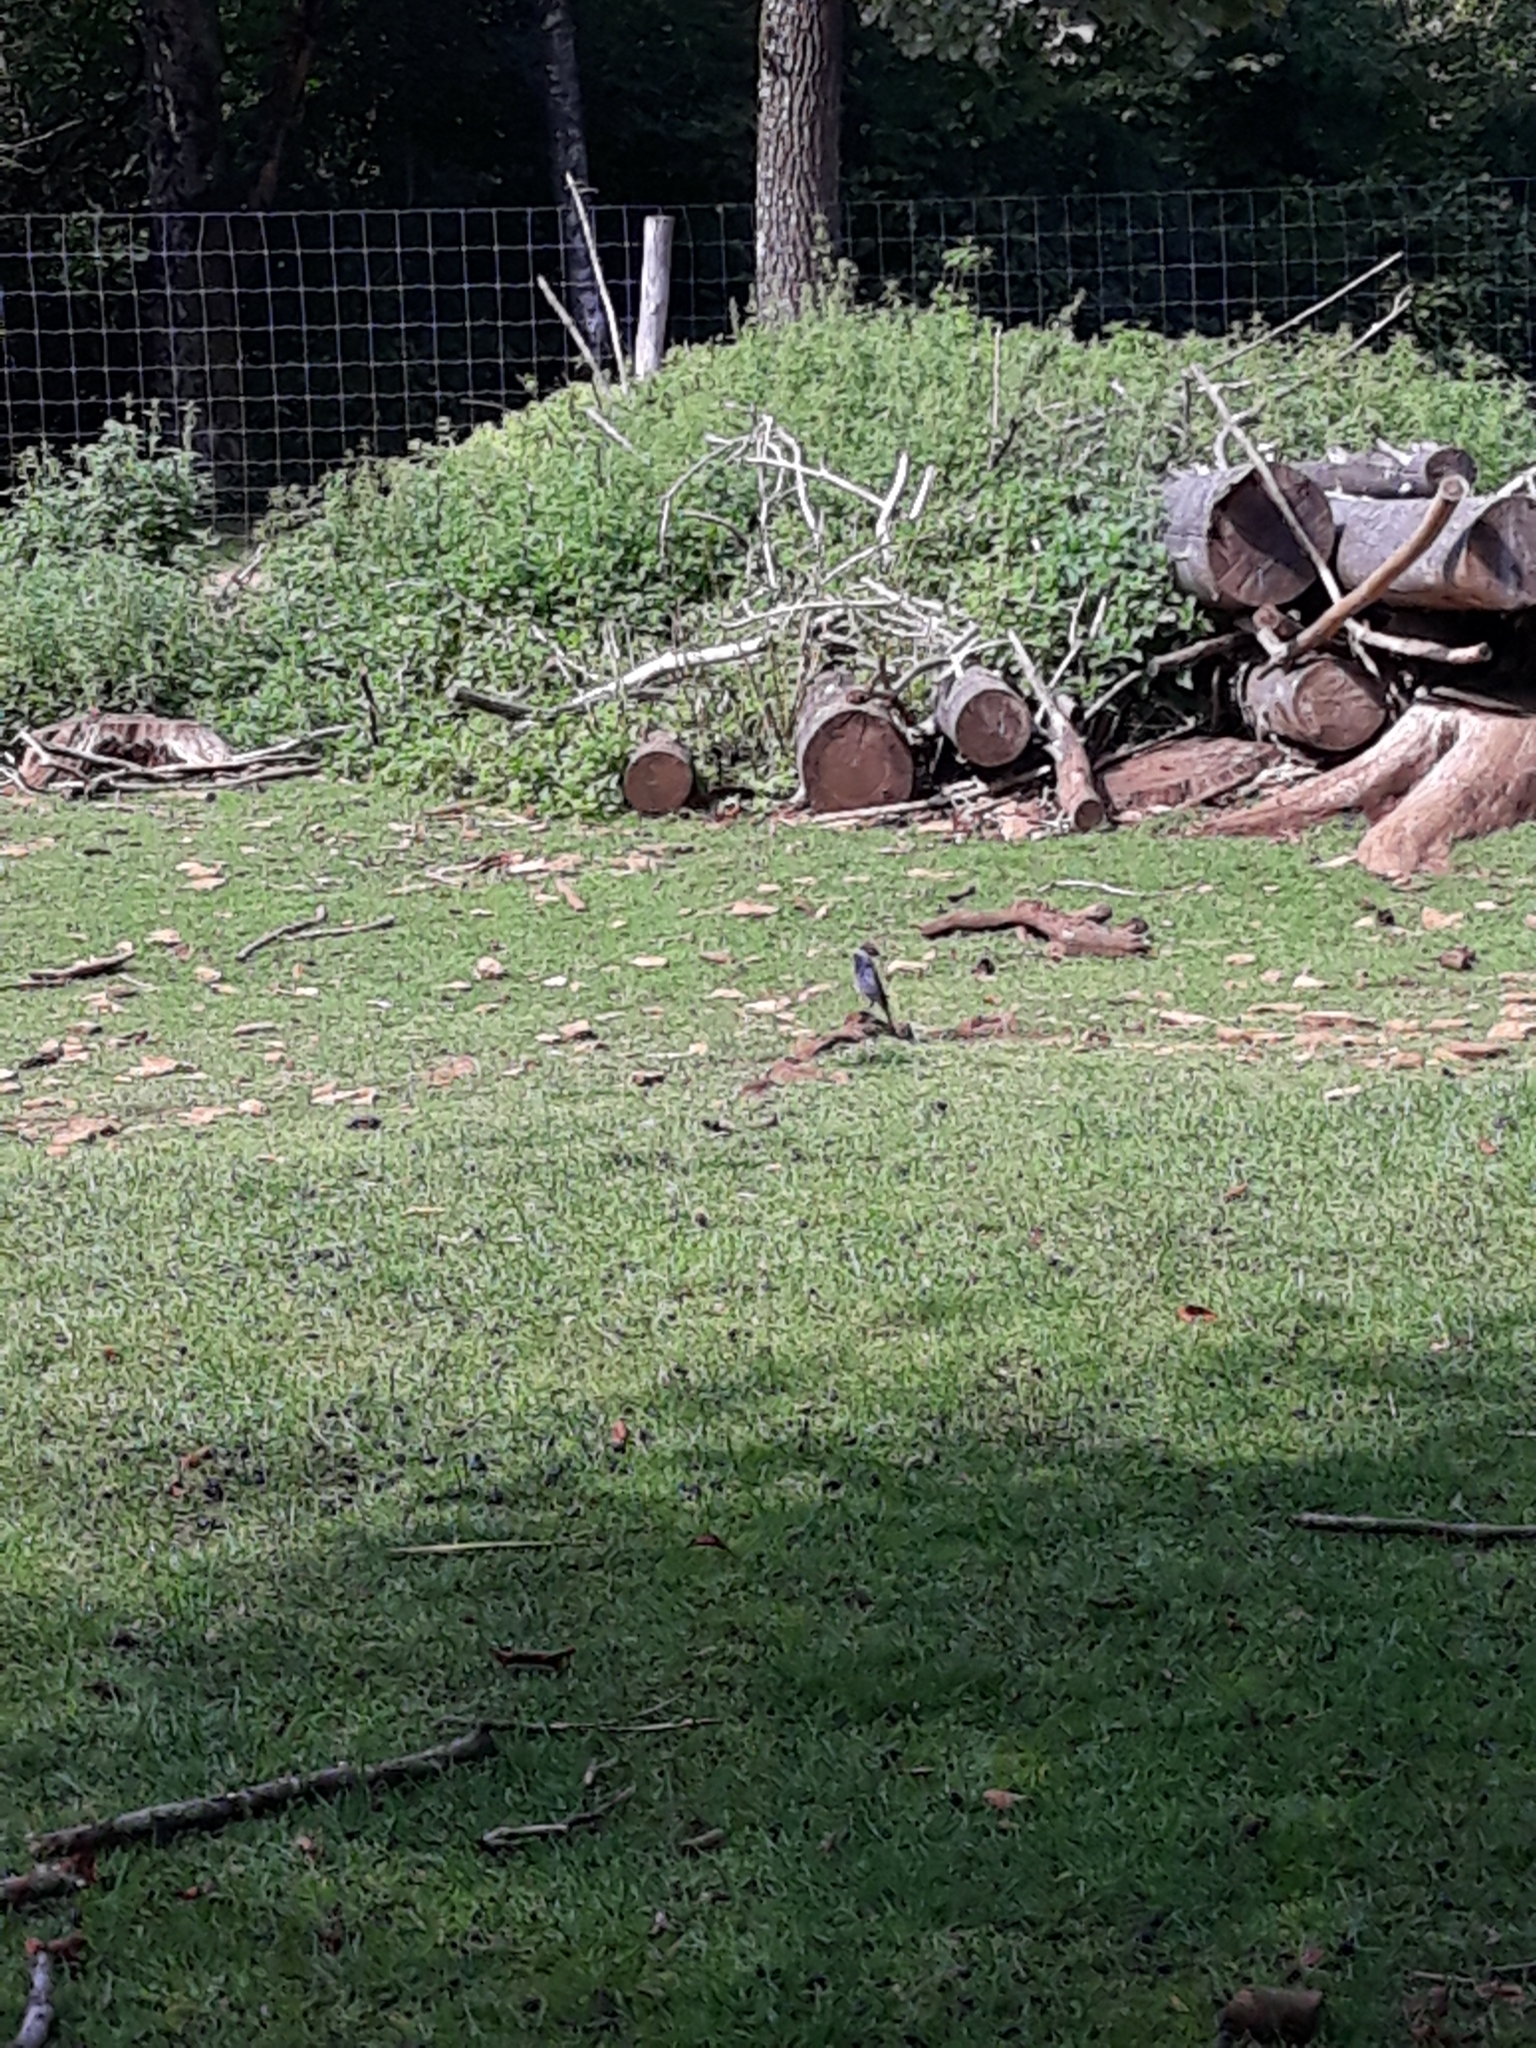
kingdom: Animalia
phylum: Chordata
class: Aves
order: Passeriformes
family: Muscicapidae
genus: Phoenicurus
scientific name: Phoenicurus ochruros
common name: Black redstart
